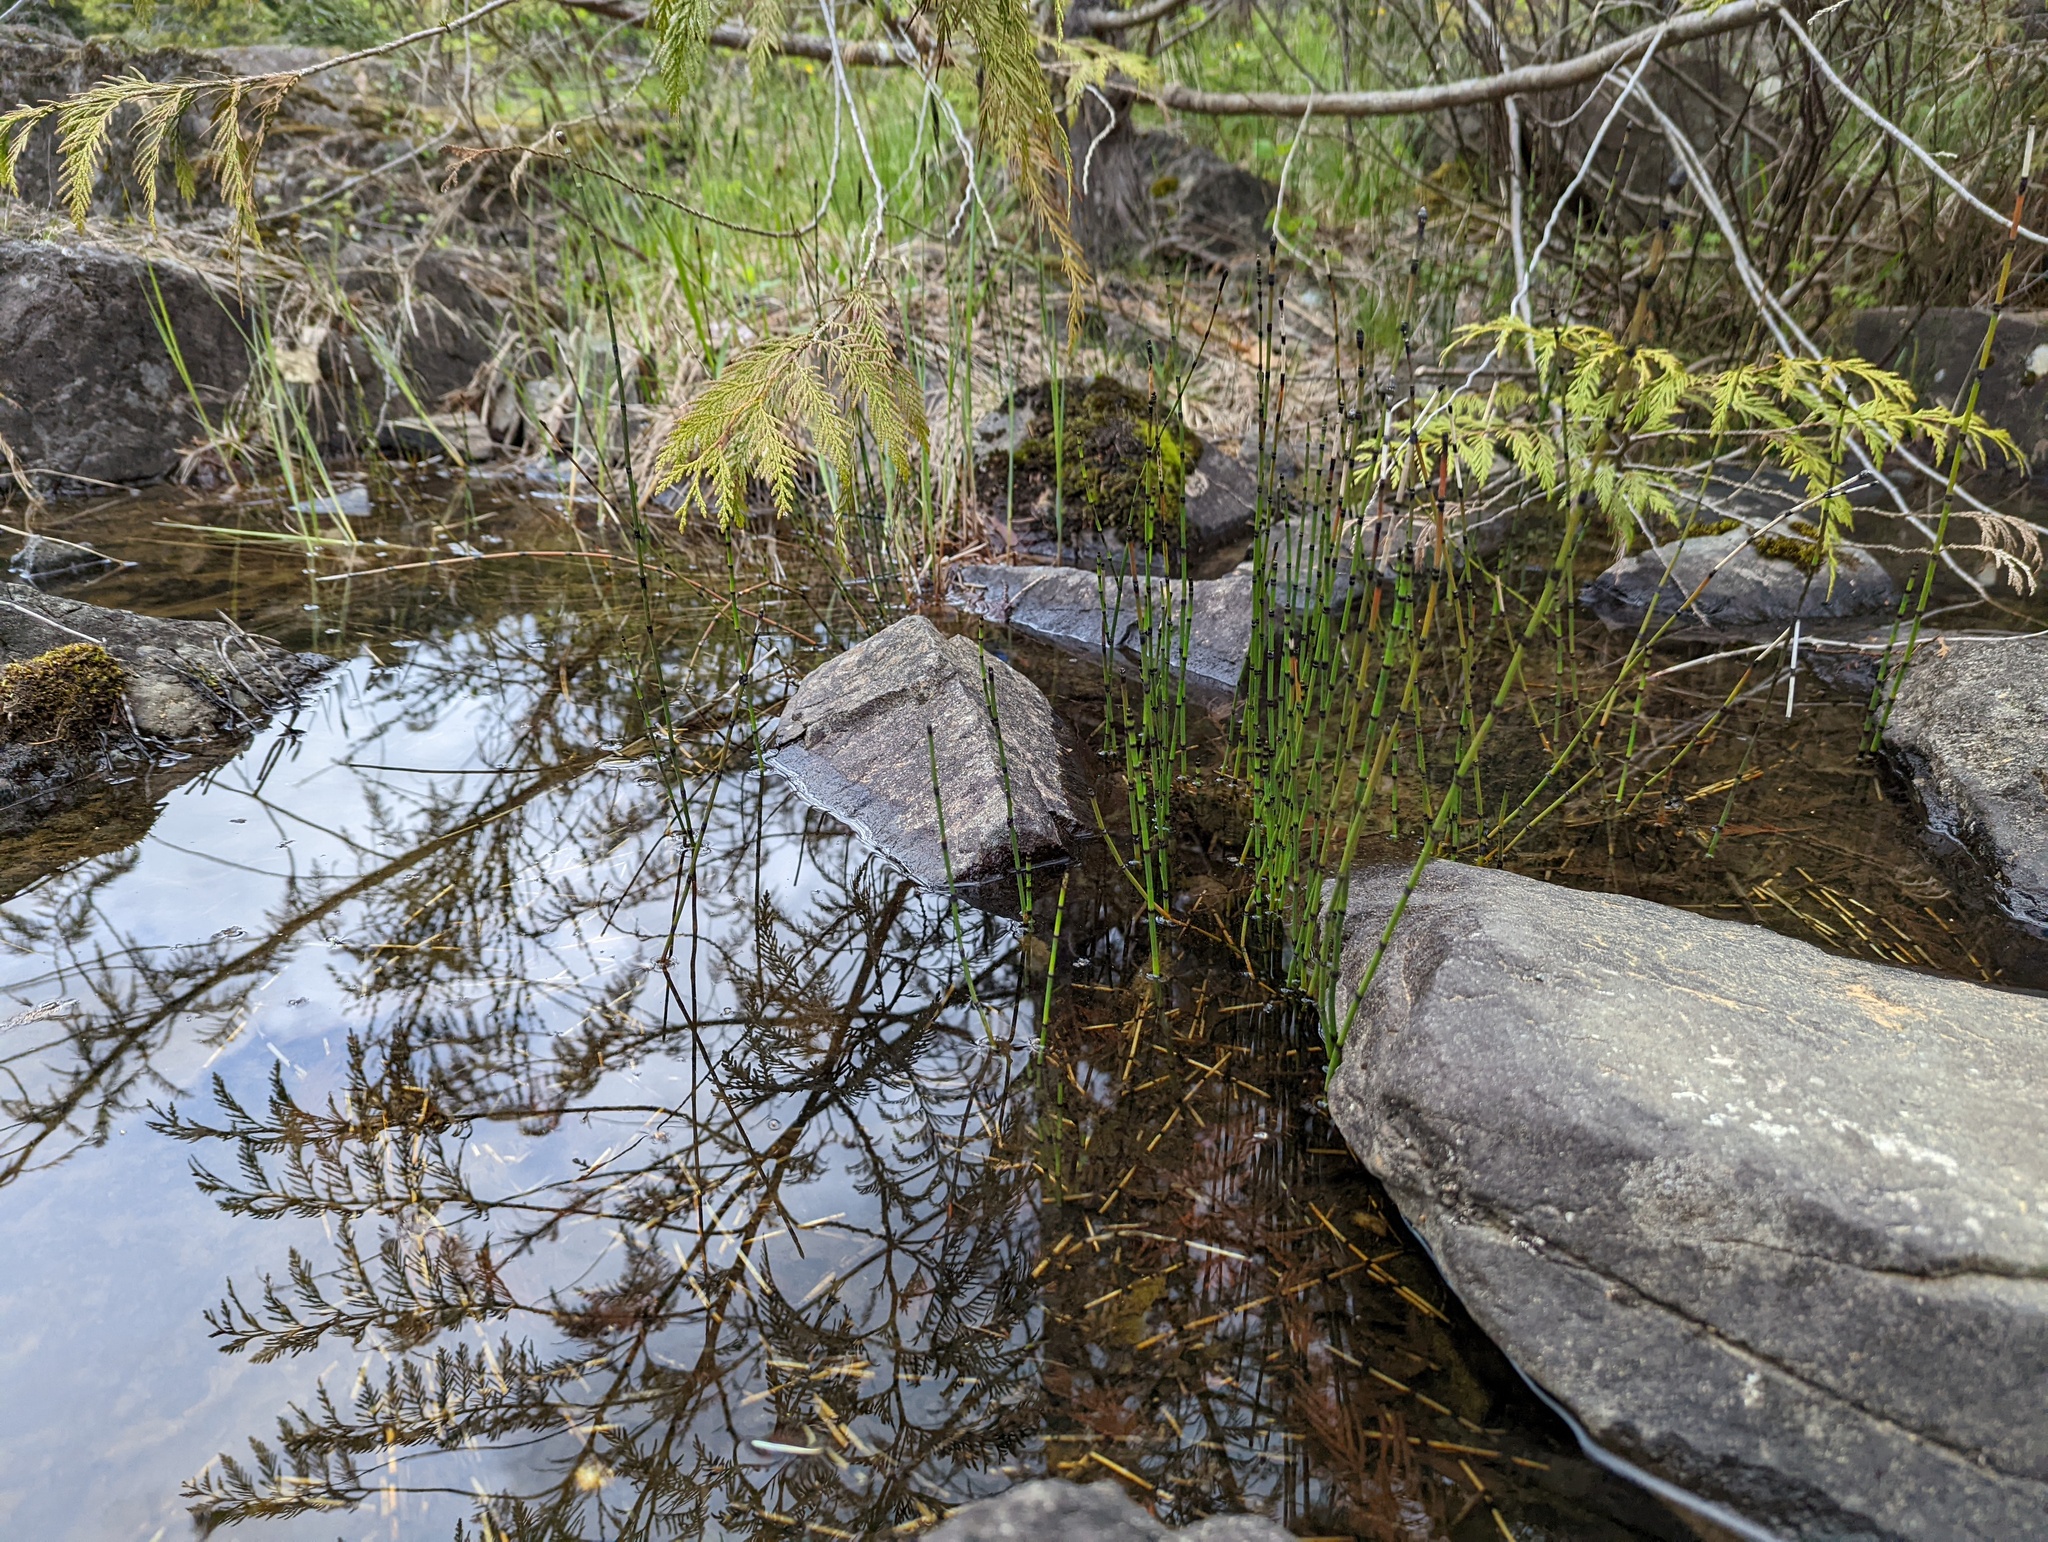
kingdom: Plantae
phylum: Tracheophyta
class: Polypodiopsida
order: Equisetales
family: Equisetaceae
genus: Equisetum
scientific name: Equisetum variegatum
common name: Variegated horsetail
